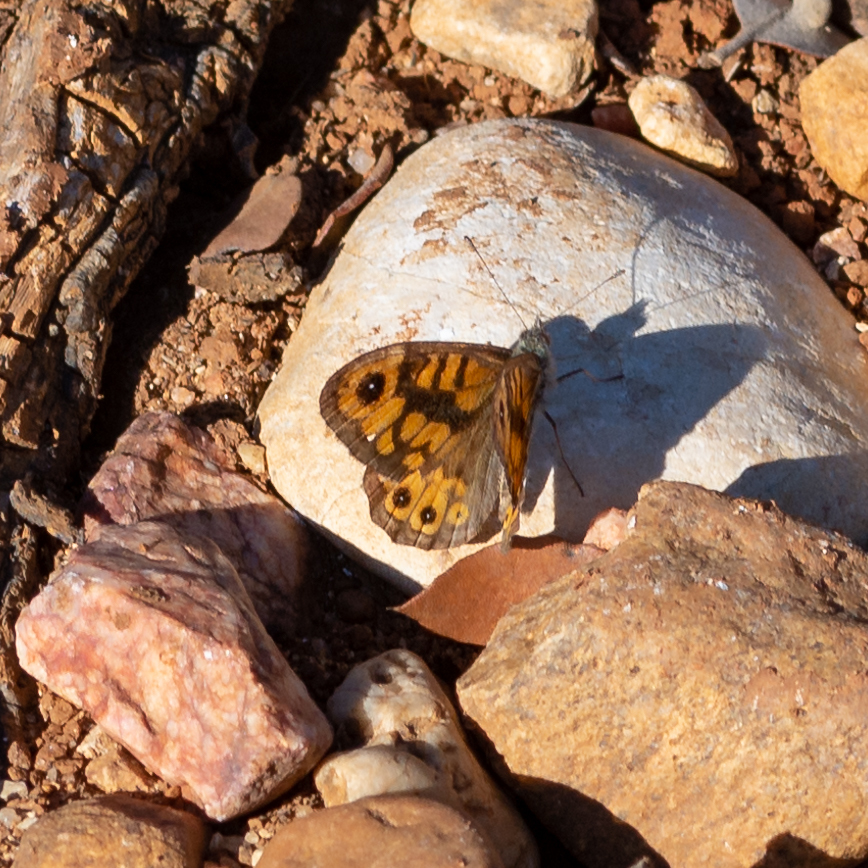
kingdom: Animalia
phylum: Arthropoda
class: Insecta
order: Lepidoptera
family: Nymphalidae
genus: Pararge
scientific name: Pararge Lasiommata megera
